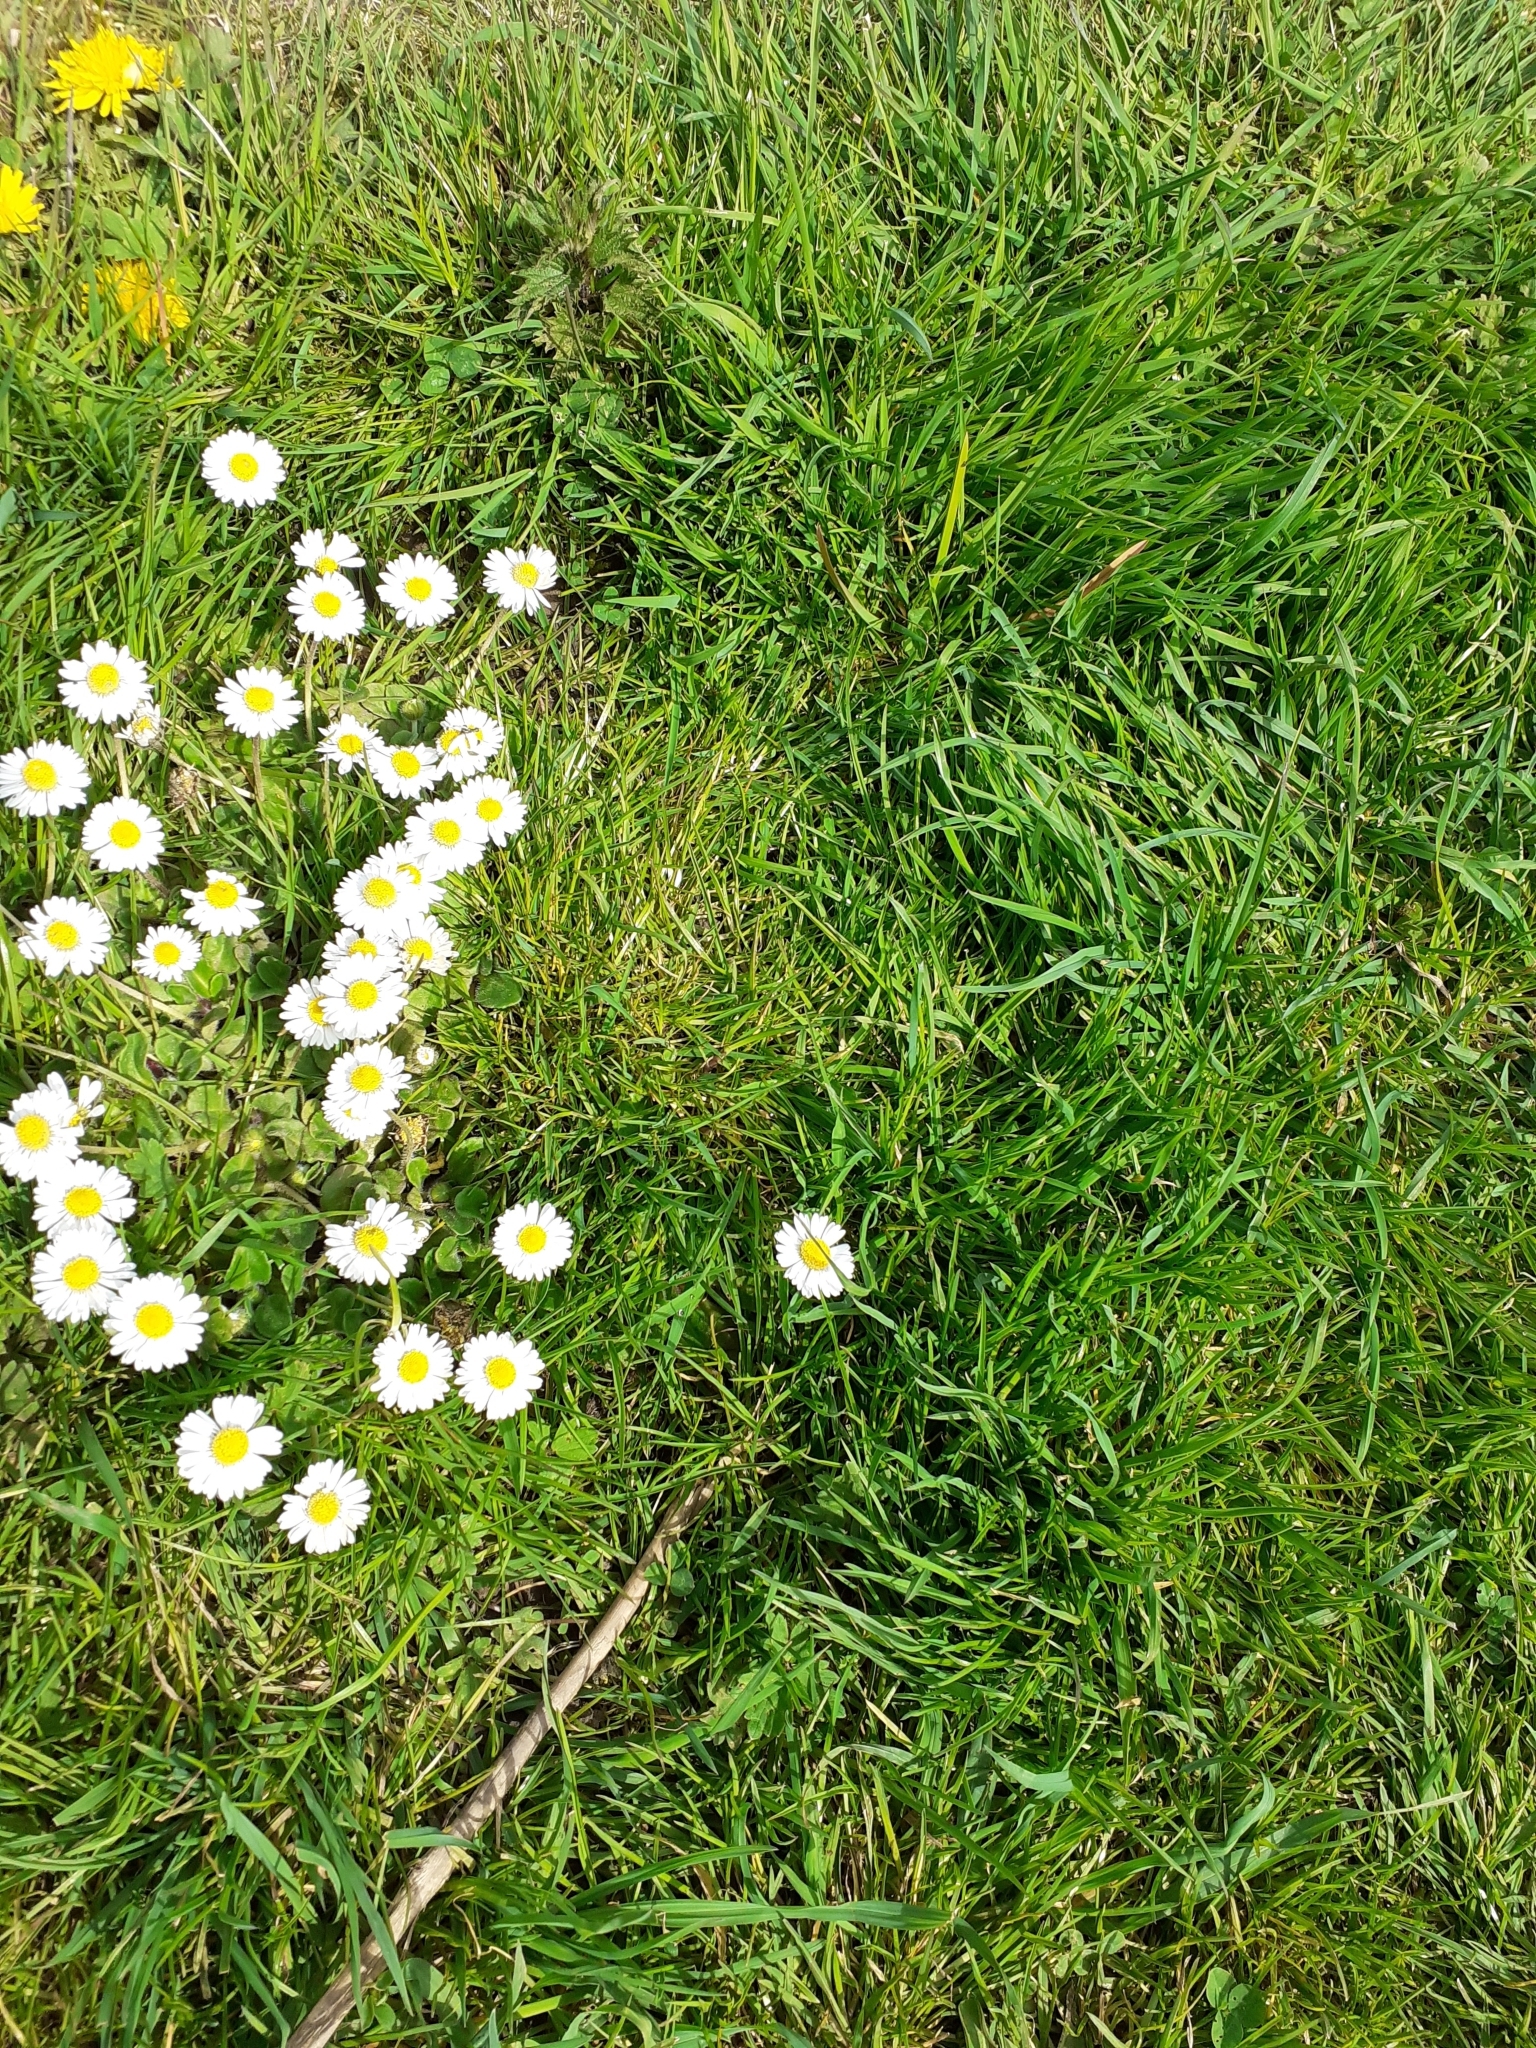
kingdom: Plantae
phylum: Tracheophyta
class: Magnoliopsida
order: Asterales
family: Asteraceae
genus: Bellis
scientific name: Bellis perennis
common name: Lawndaisy
